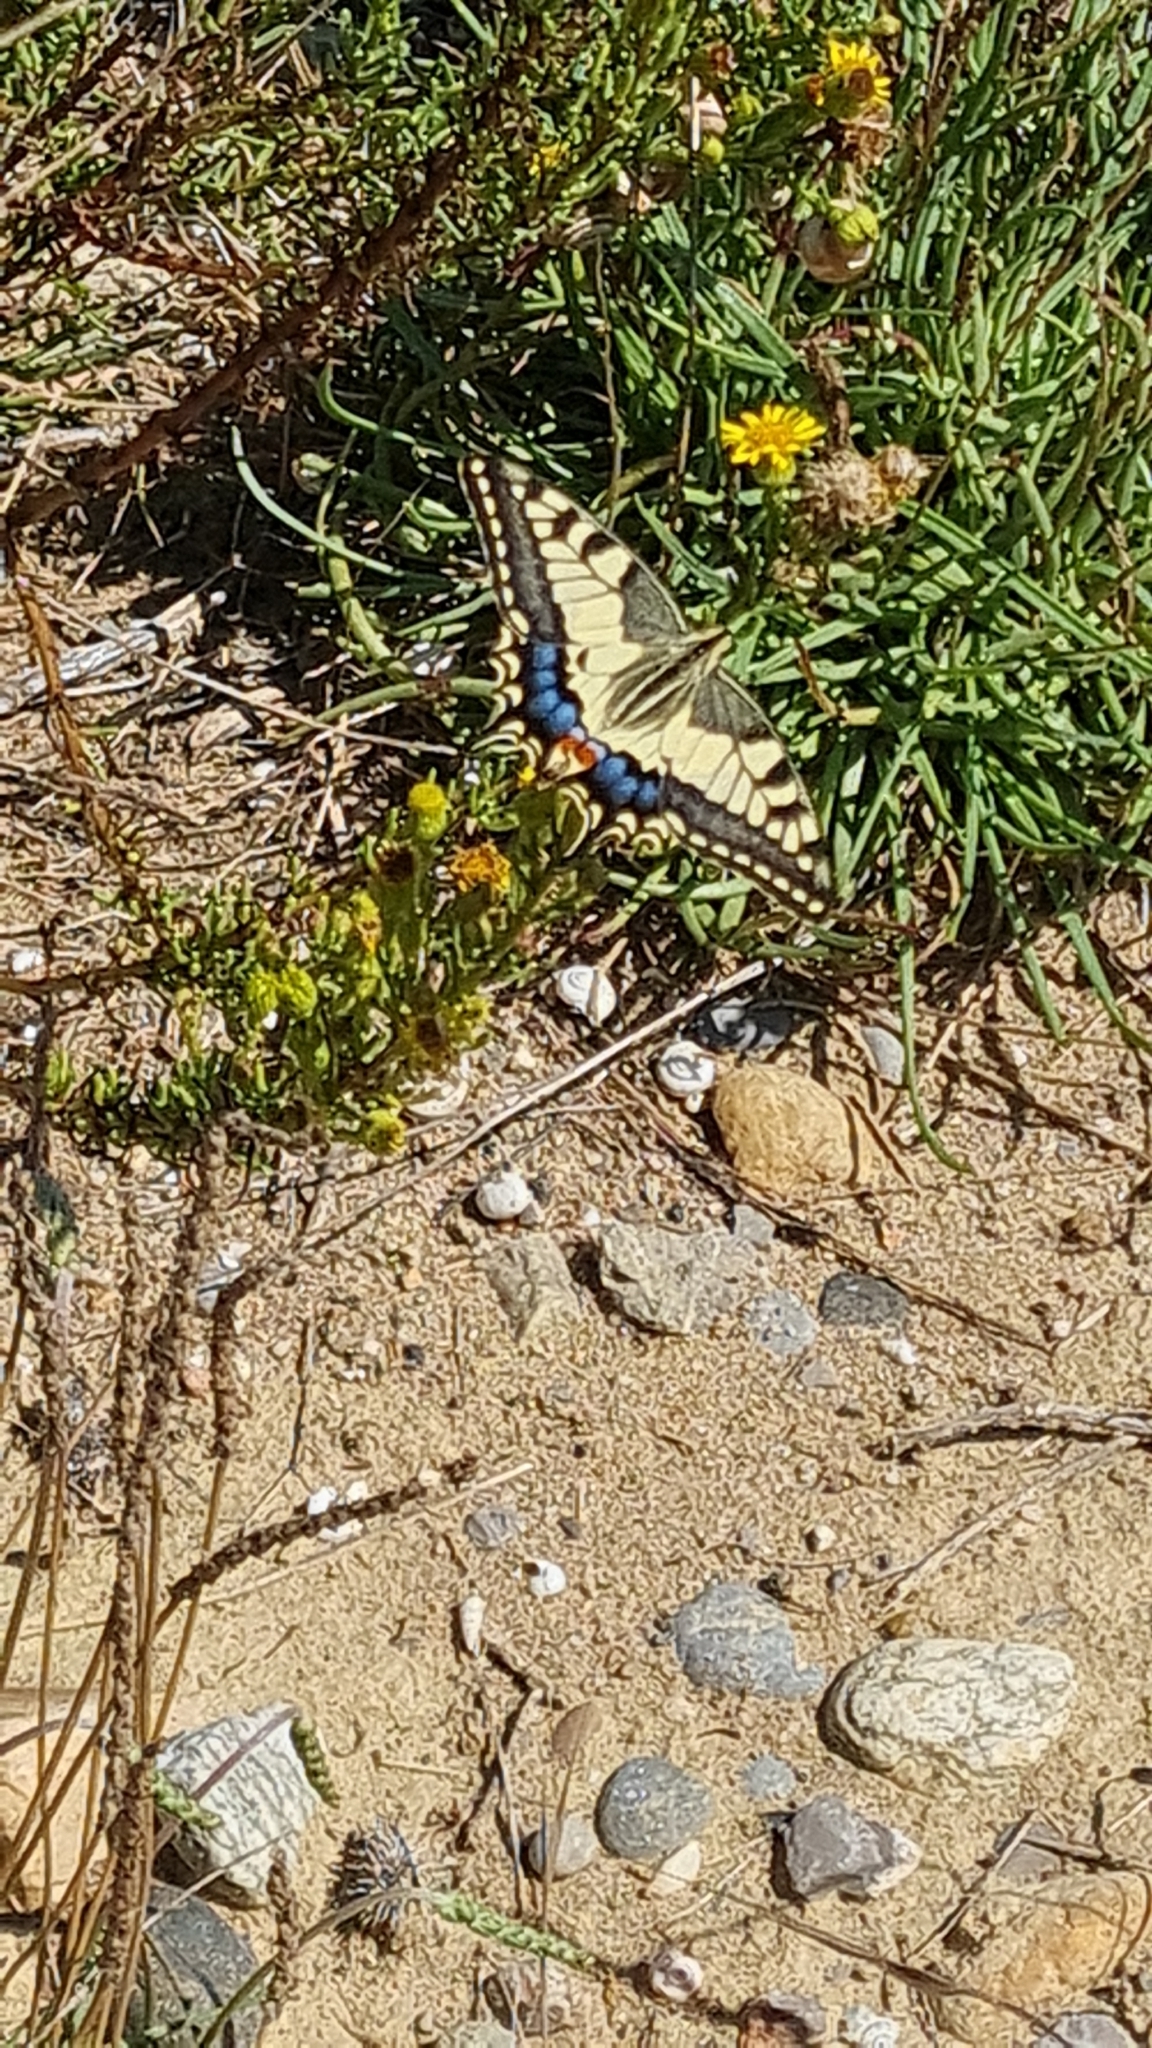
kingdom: Animalia
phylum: Arthropoda
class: Insecta
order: Lepidoptera
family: Papilionidae
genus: Papilio
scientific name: Papilio machaon
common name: Swallowtail
